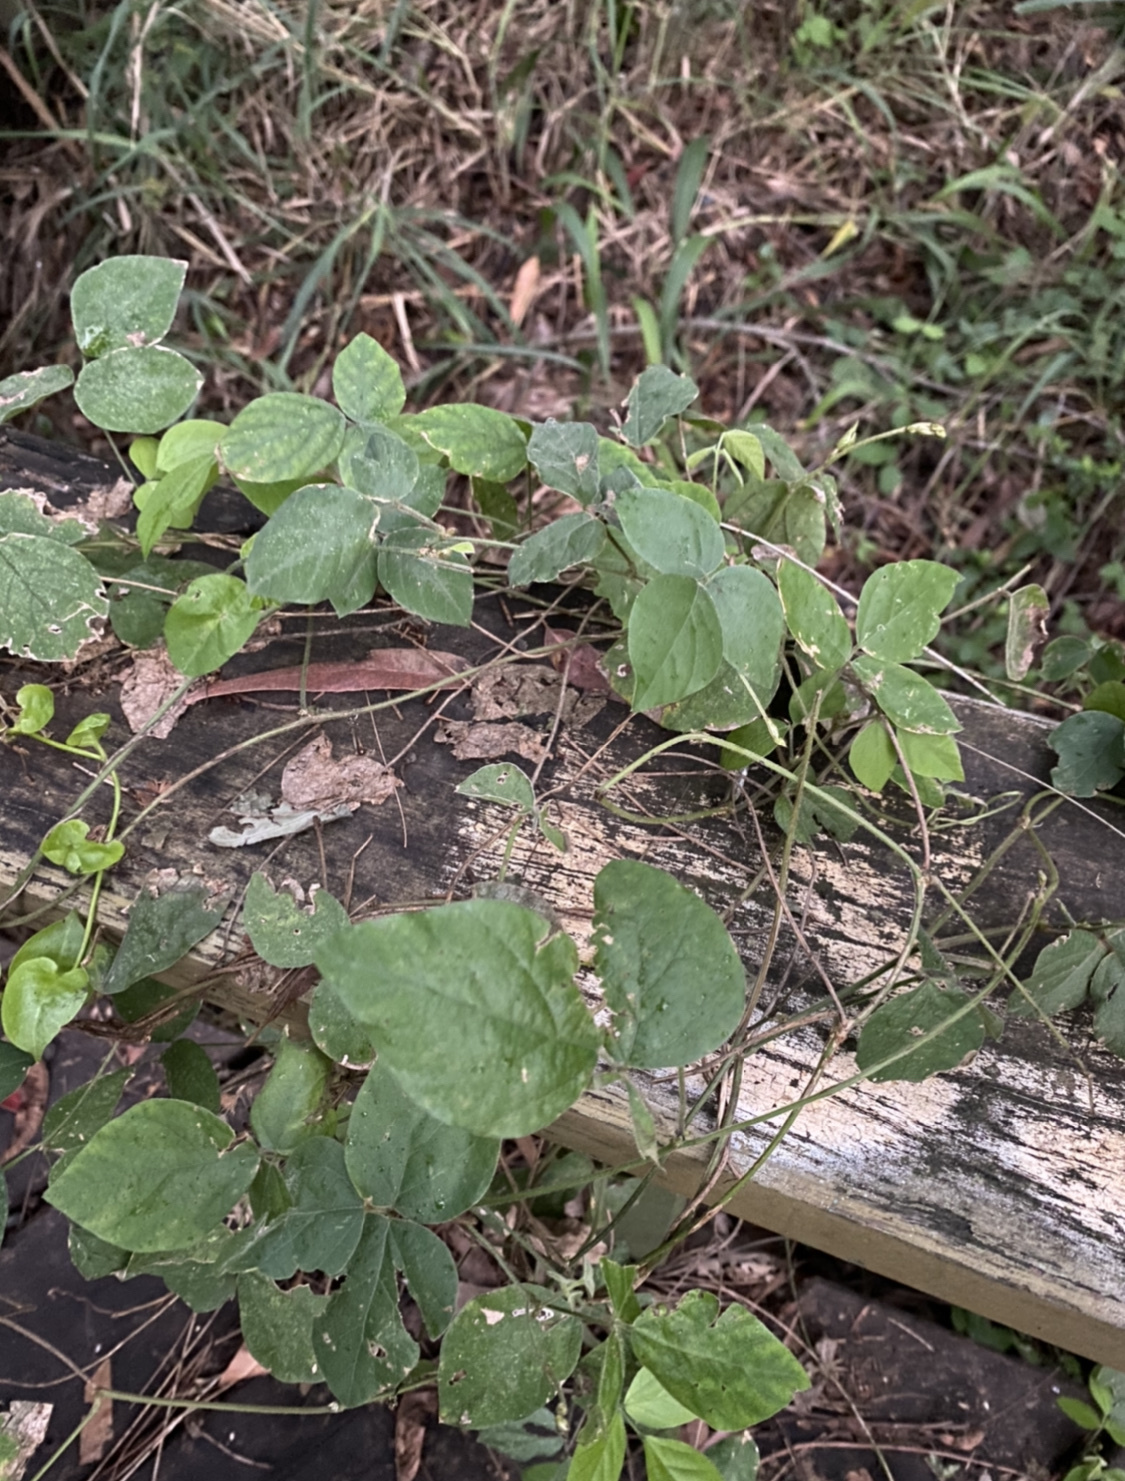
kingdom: Plantae
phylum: Tracheophyta
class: Magnoliopsida
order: Fabales
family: Fabaceae
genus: Neonotonia
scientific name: Neonotonia wightii
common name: Perennial soybean
